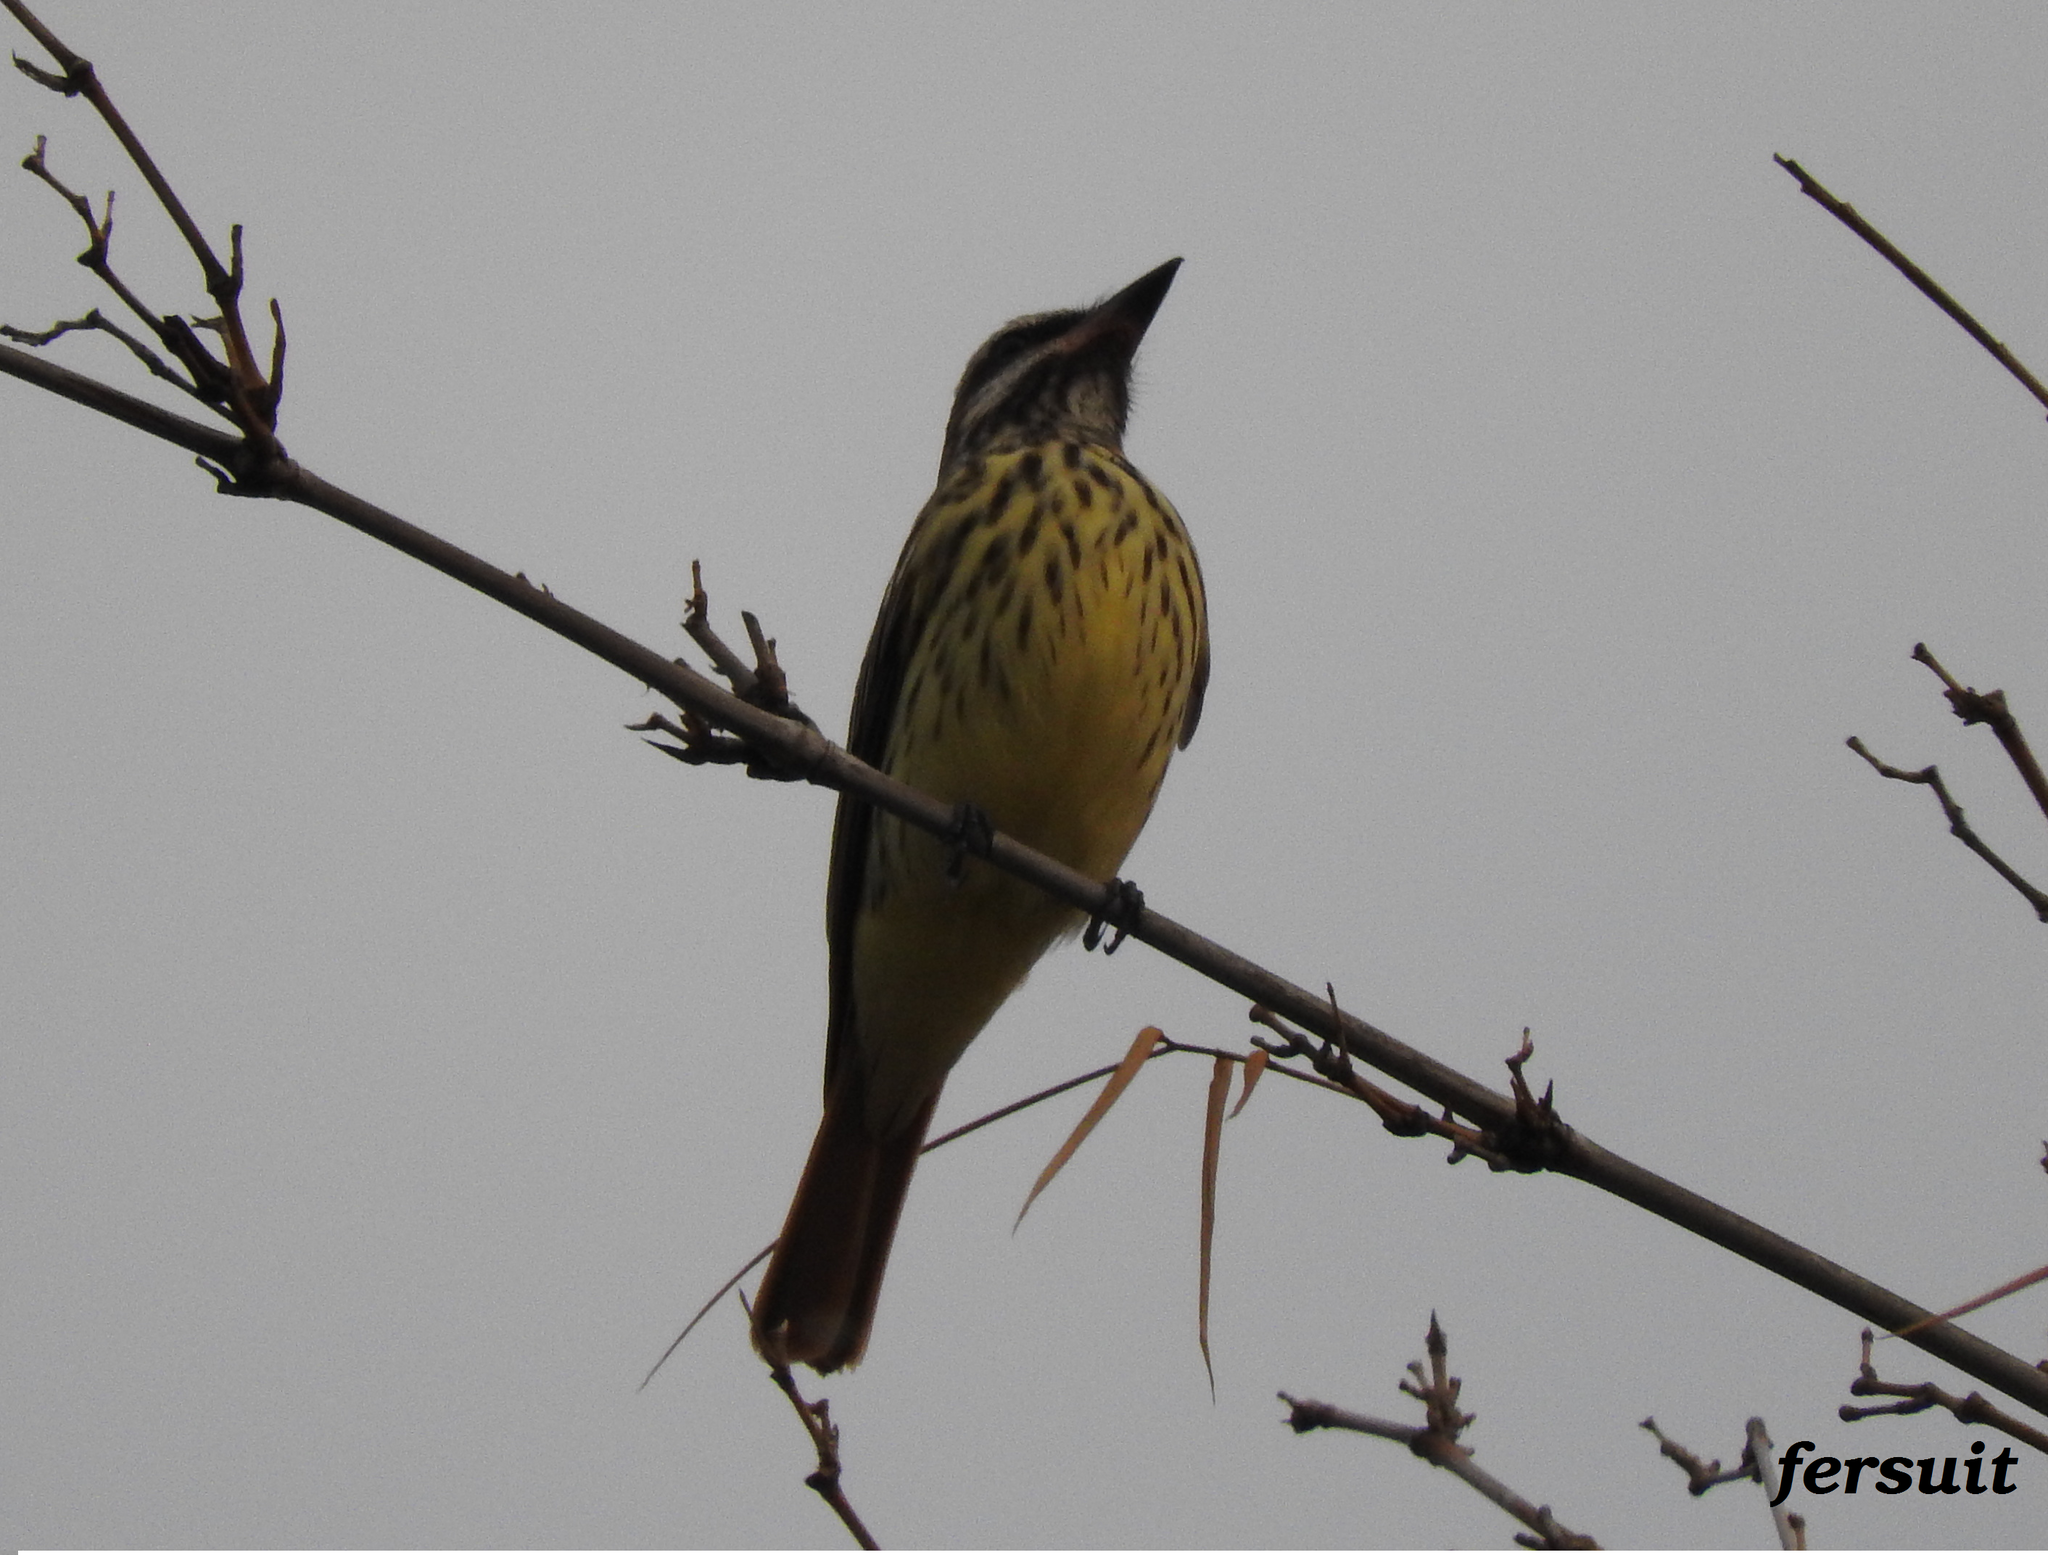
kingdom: Animalia
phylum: Chordata
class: Aves
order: Passeriformes
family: Tyrannidae
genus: Myiodynastes
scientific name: Myiodynastes luteiventris
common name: Sulphur-bellied flycatcher
